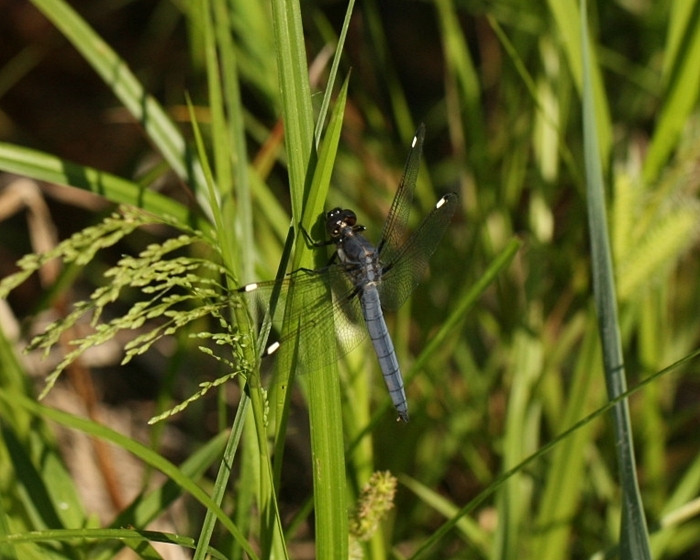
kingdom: Animalia
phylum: Arthropoda
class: Insecta
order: Odonata
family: Libellulidae
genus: Libellula
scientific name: Libellula cyanea
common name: Spangled skimmer
